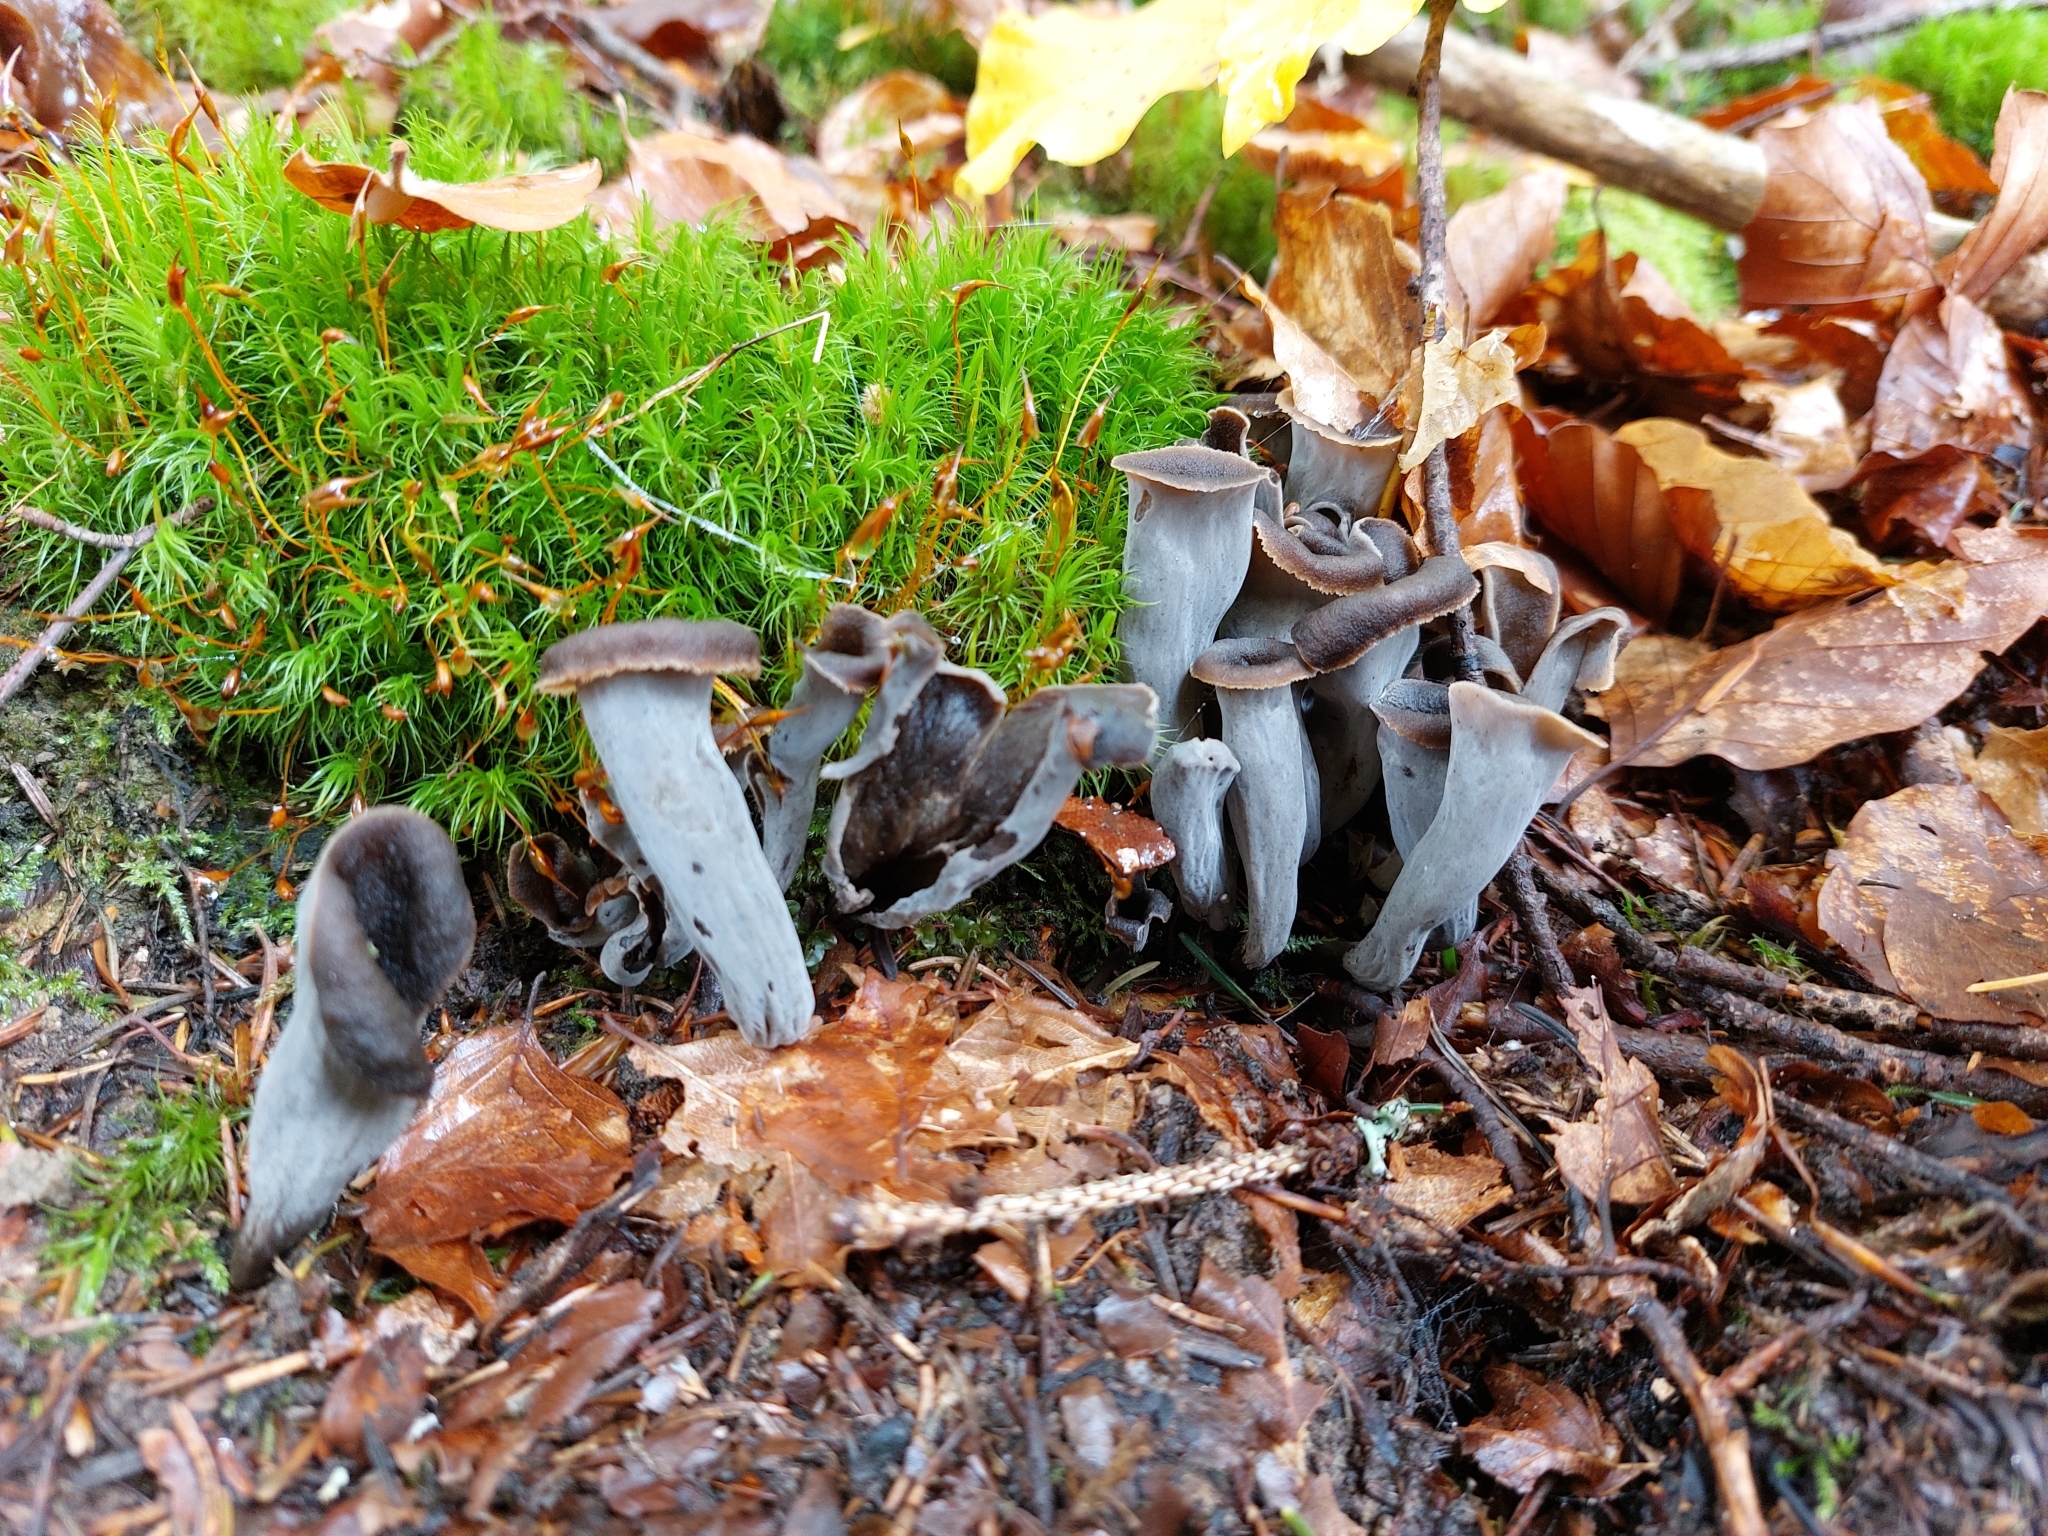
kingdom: Fungi
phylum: Basidiomycota
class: Agaricomycetes
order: Cantharellales
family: Hydnaceae
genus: Craterellus
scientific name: Craterellus cornucopioides
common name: Horn of plenty
